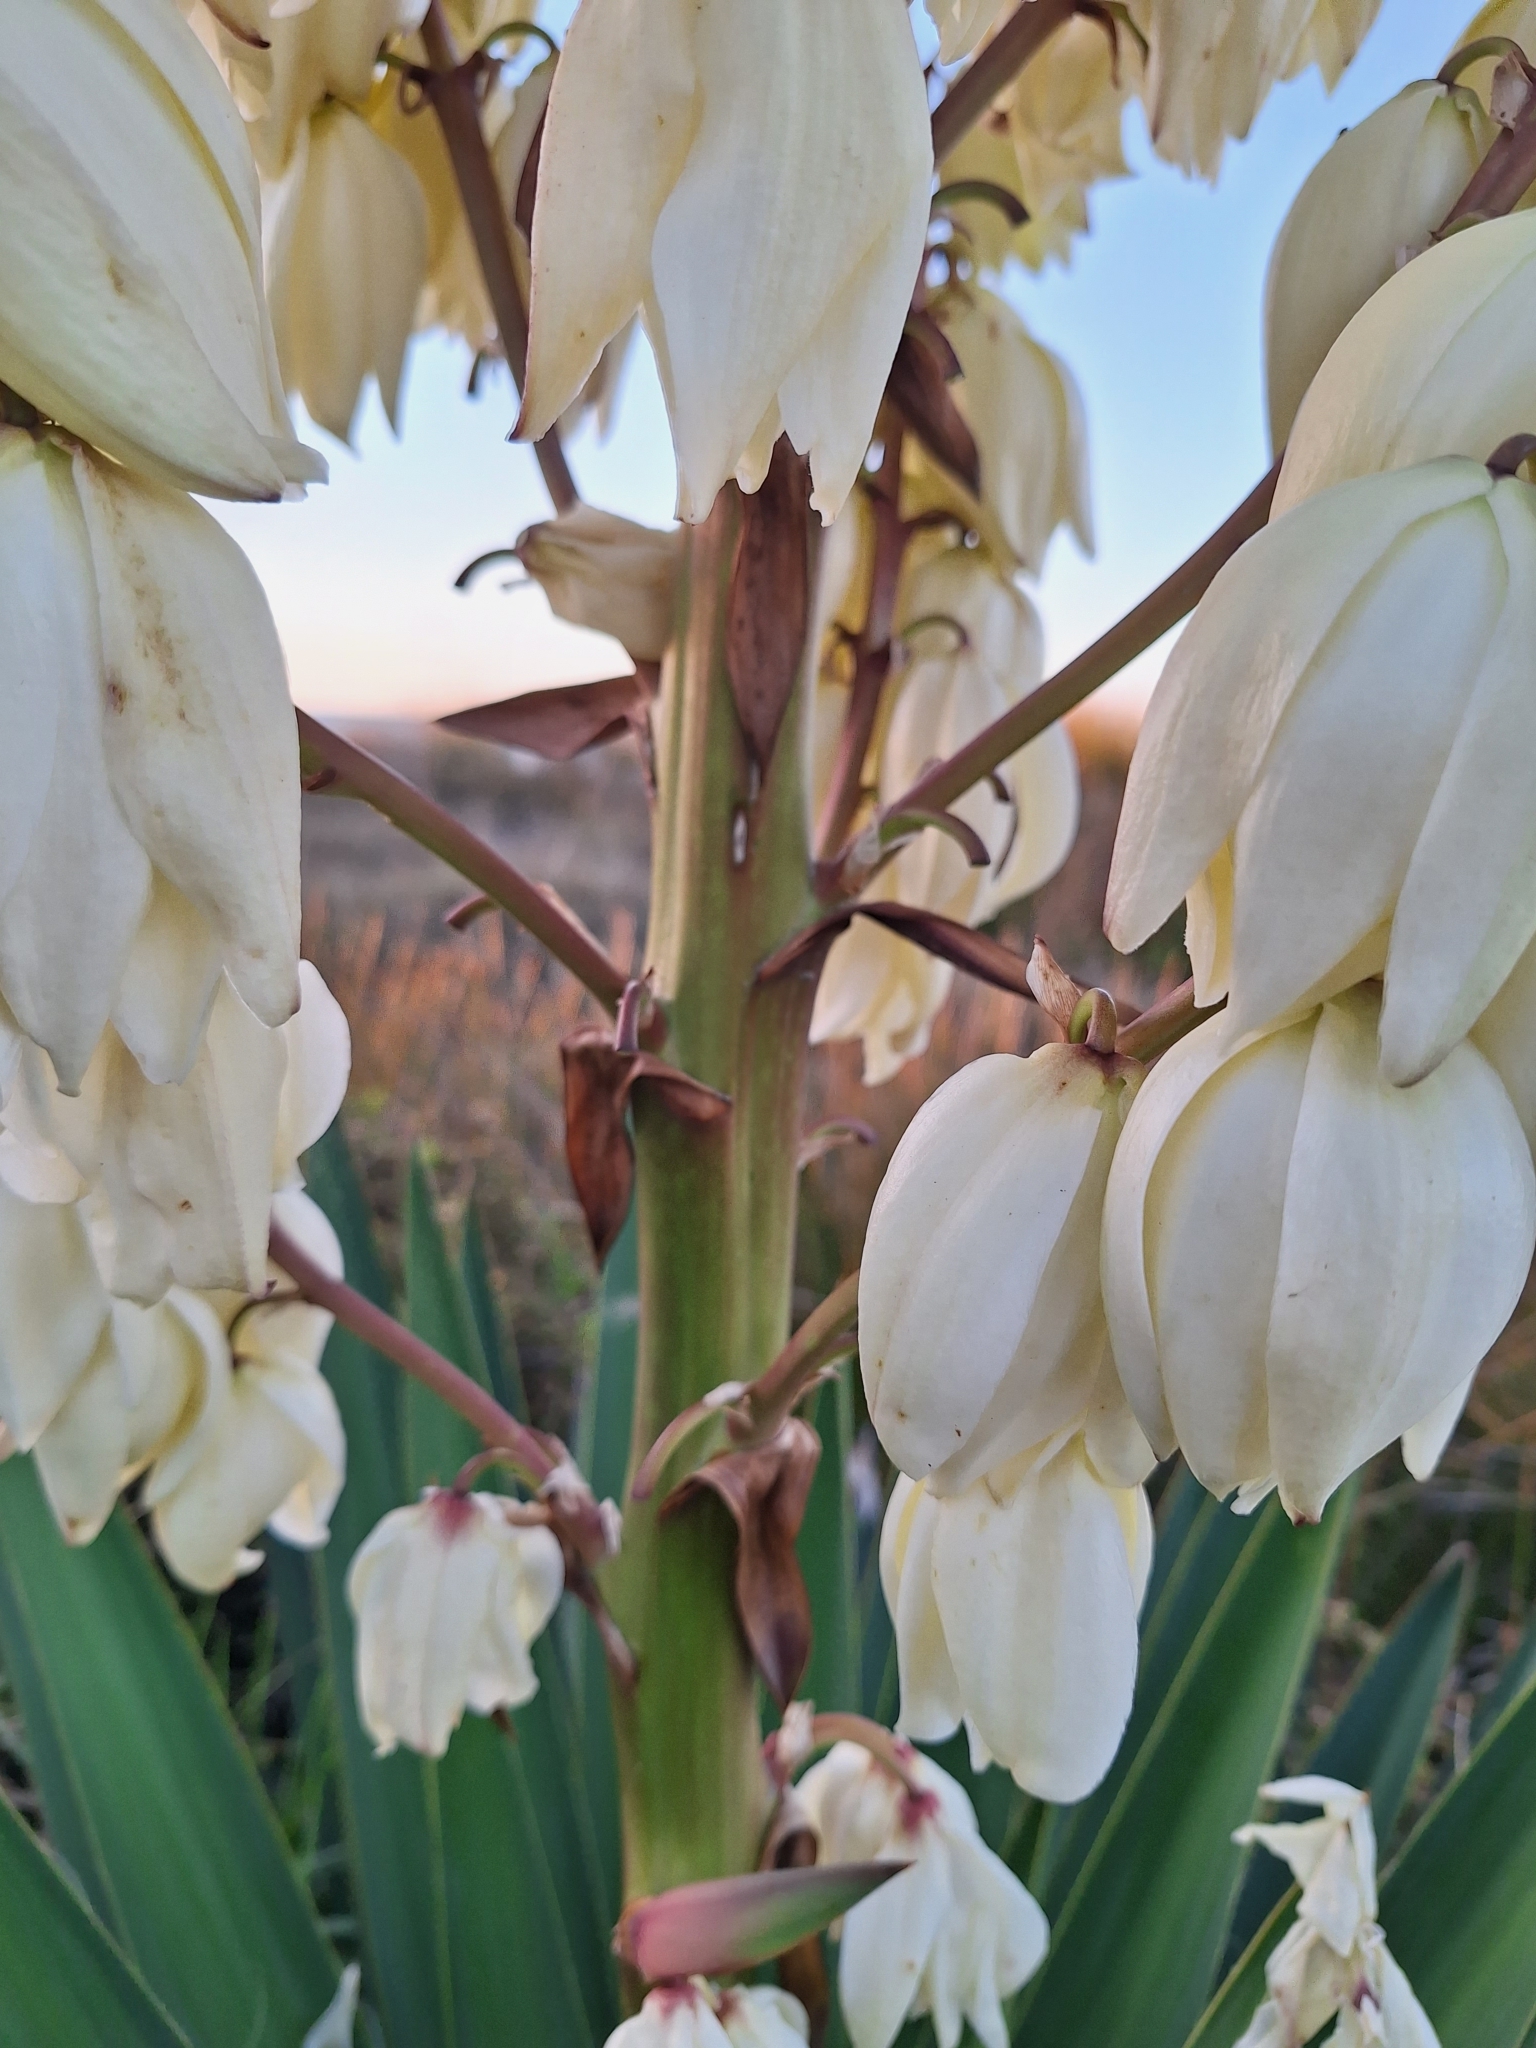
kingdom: Plantae
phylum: Tracheophyta
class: Liliopsida
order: Asparagales
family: Asparagaceae
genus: Yucca
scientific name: Yucca gloriosa
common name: Spanish-dagger
